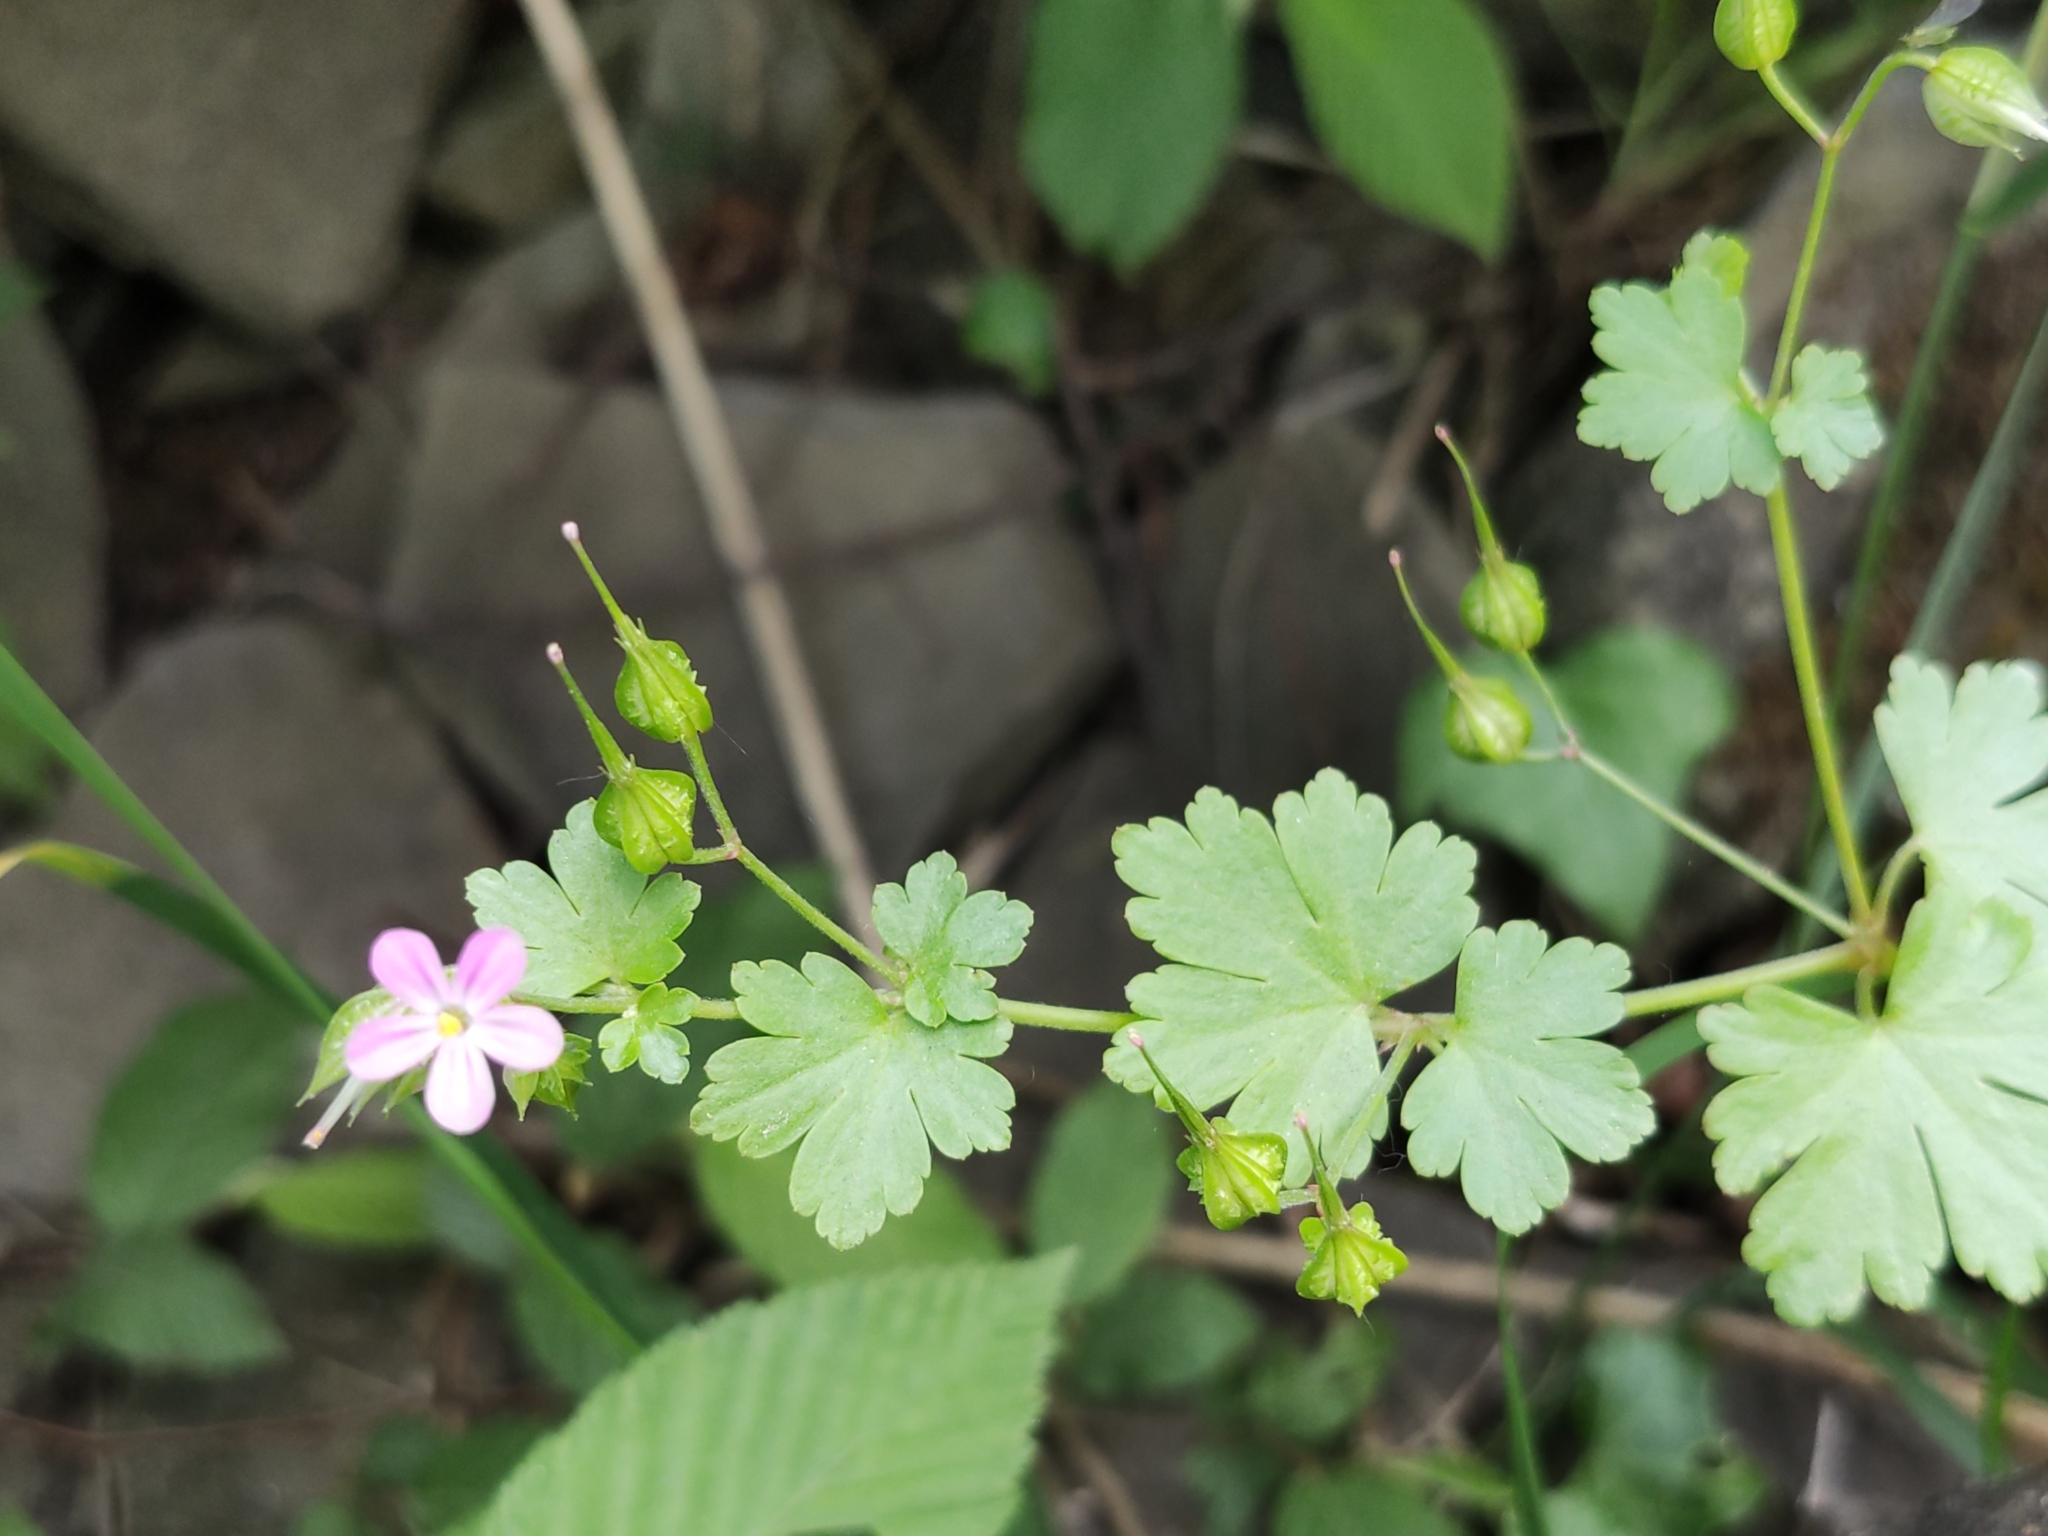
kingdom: Plantae
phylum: Tracheophyta
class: Magnoliopsida
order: Geraniales
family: Geraniaceae
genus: Geranium
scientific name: Geranium lucidum
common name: Shining crane's-bill
